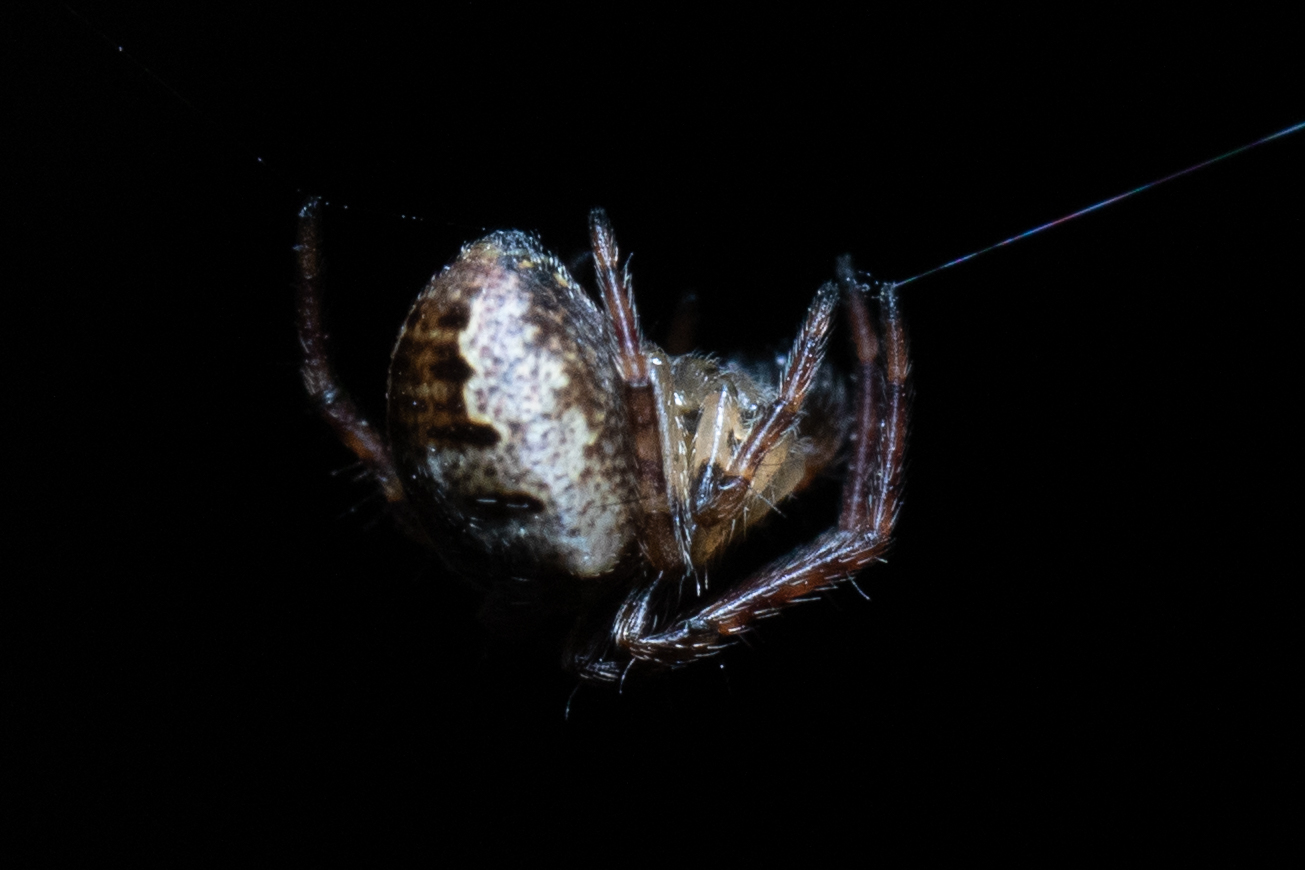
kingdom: Animalia
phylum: Arthropoda
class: Arachnida
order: Araneae
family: Araneidae
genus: Zilla
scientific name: Zilla diodia
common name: Zilla diodia
